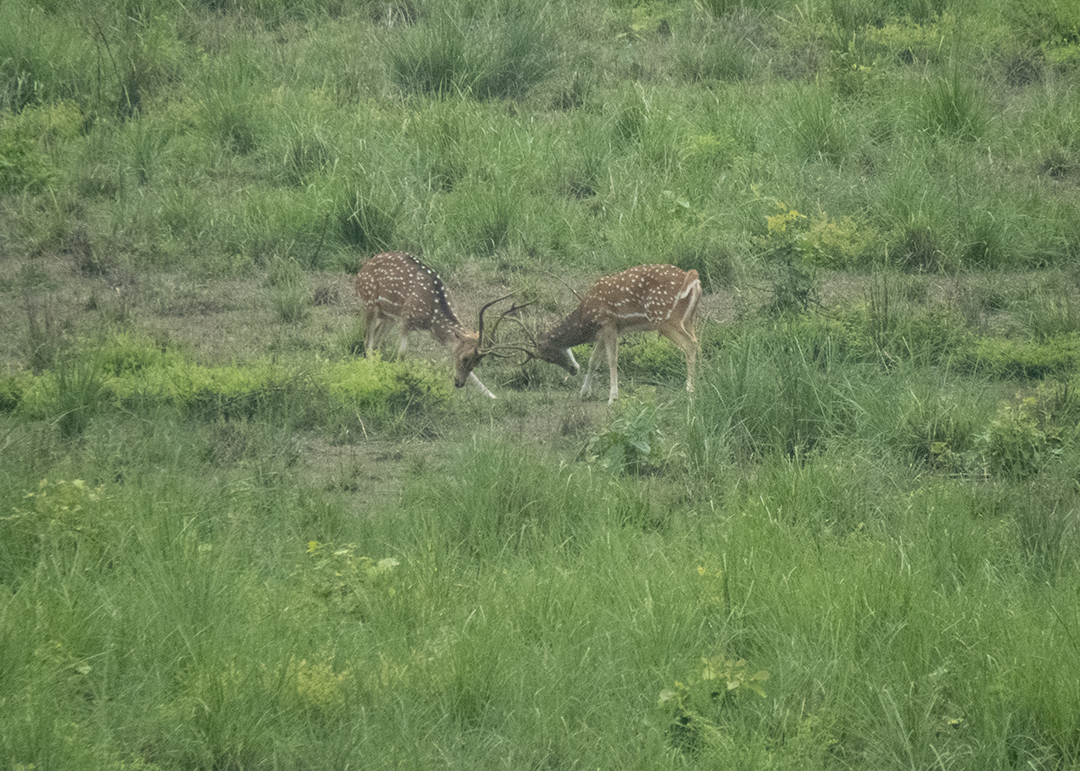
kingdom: Animalia
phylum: Chordata
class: Mammalia
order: Artiodactyla
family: Cervidae
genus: Axis
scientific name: Axis axis
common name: Chital
